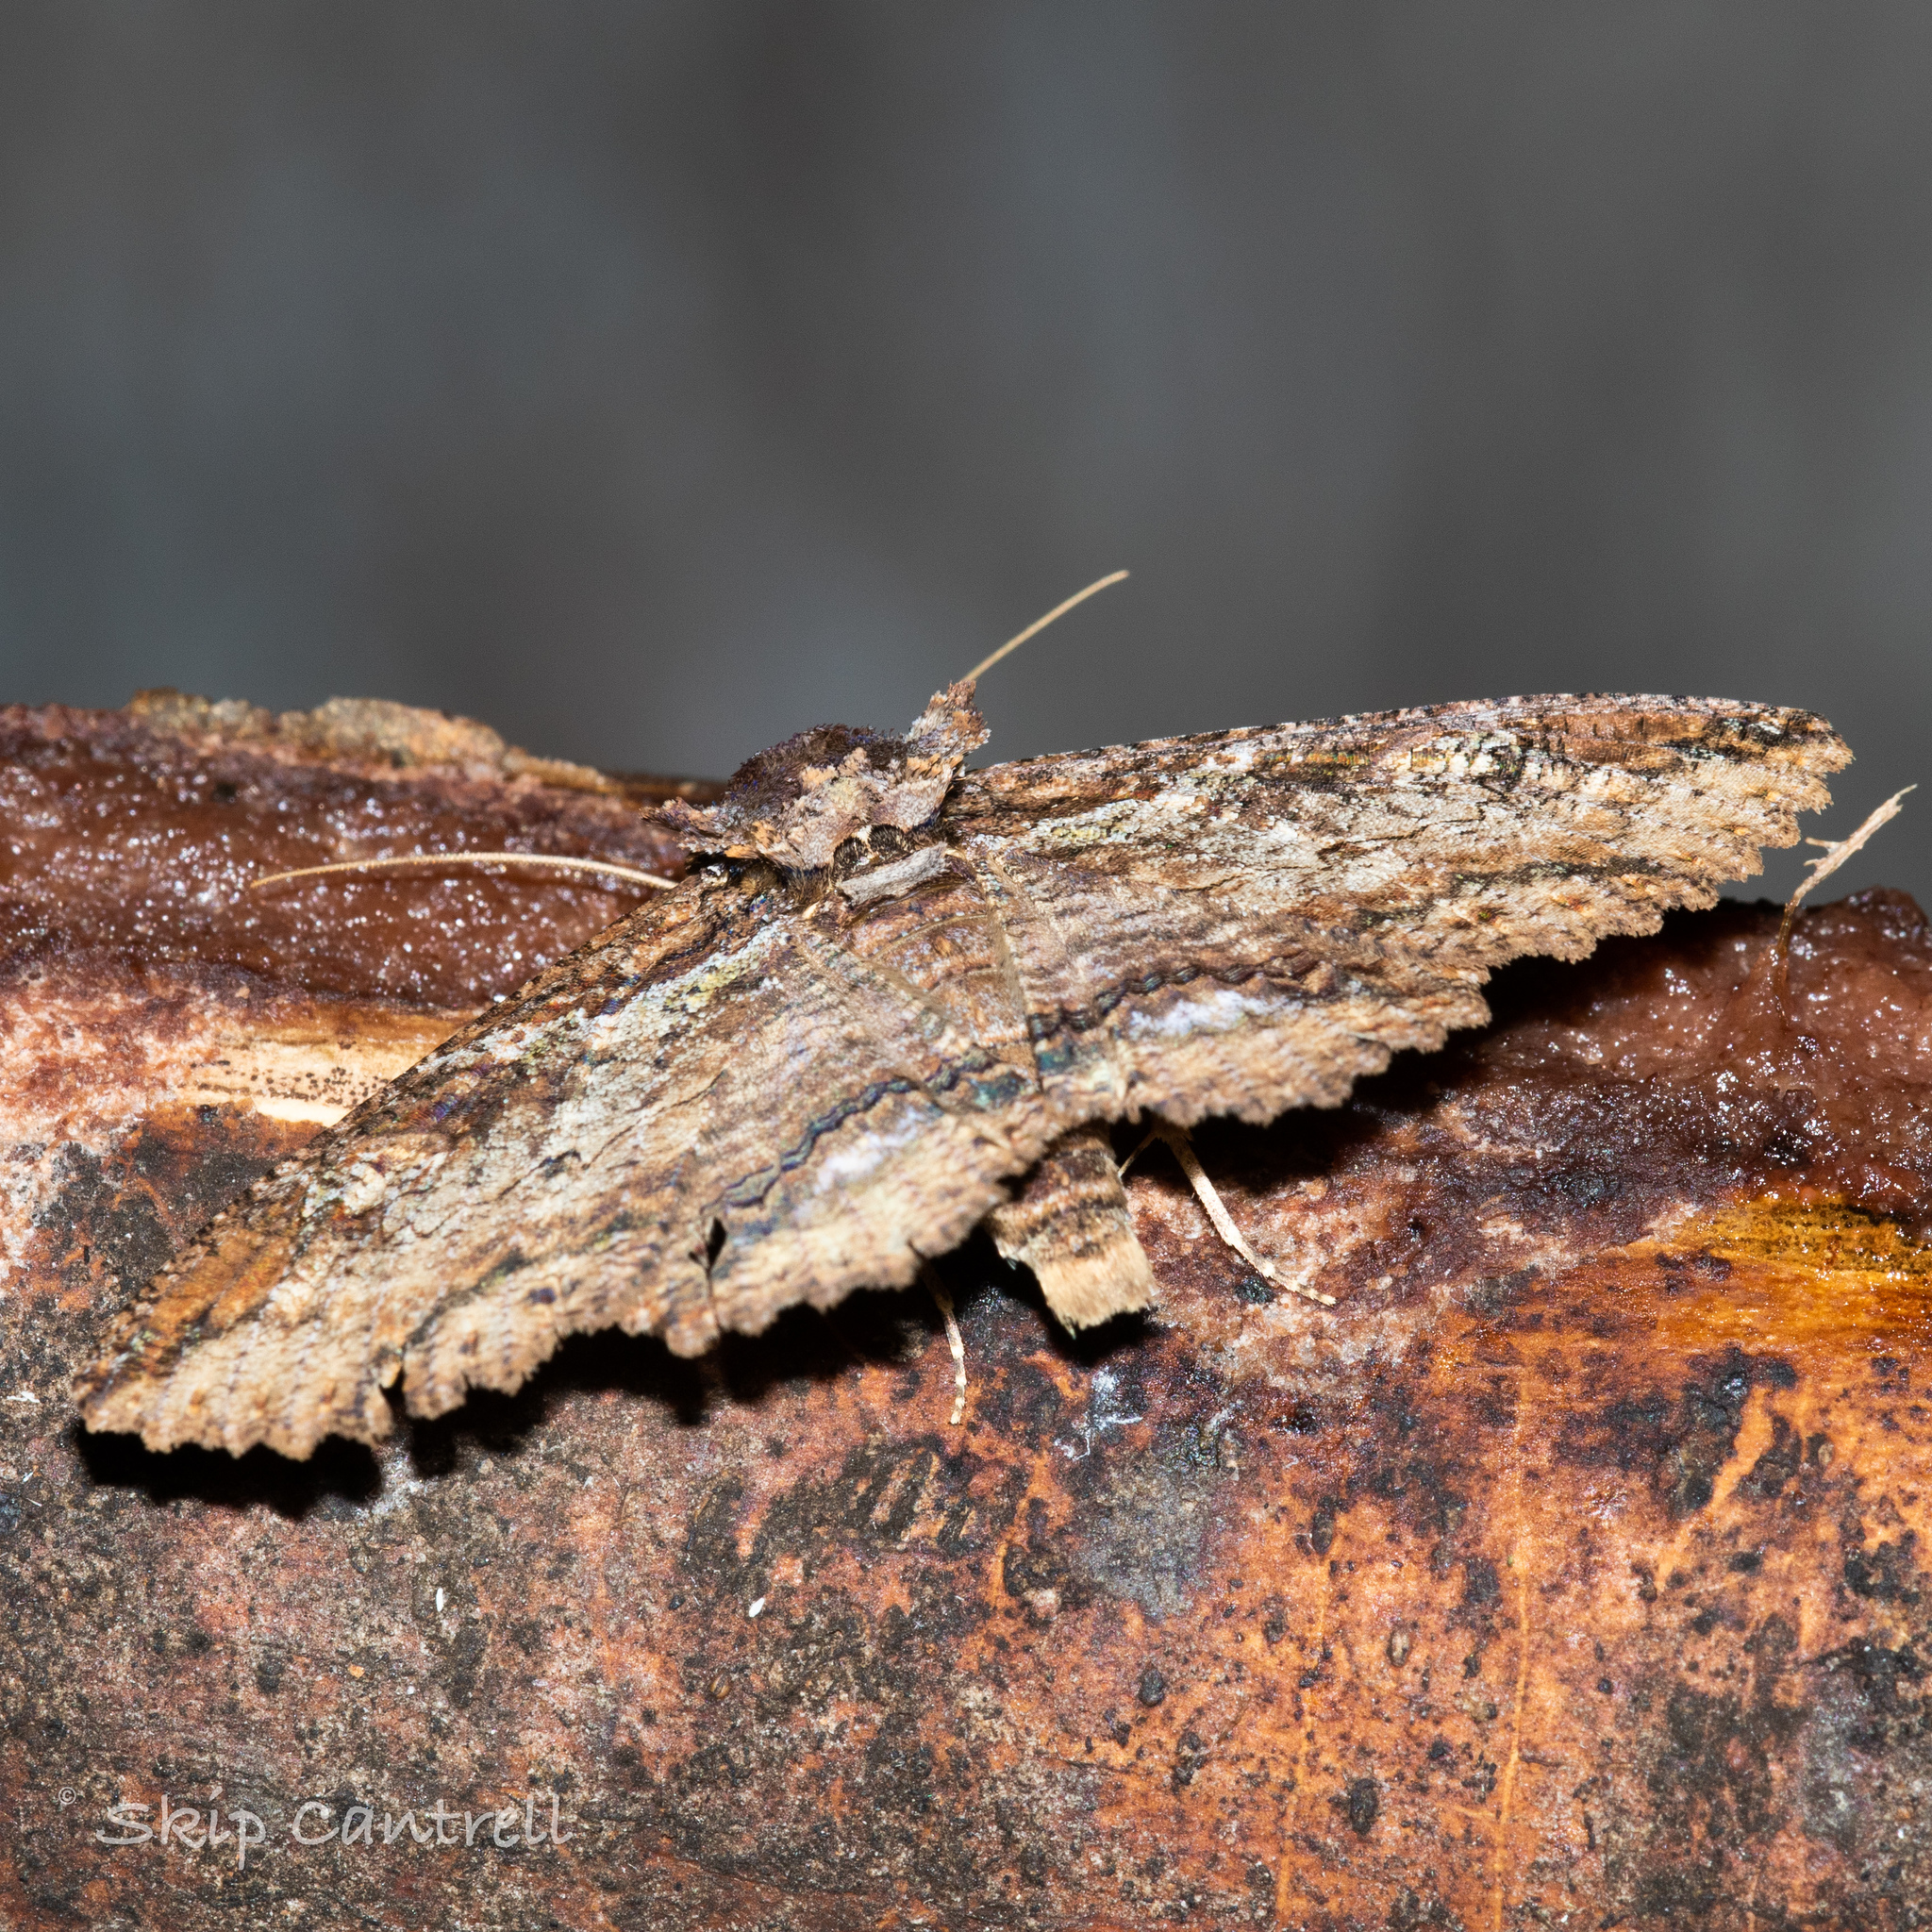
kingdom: Animalia
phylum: Arthropoda
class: Insecta
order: Lepidoptera
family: Erebidae
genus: Zale
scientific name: Zale lunata
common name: Lunate zale moth
